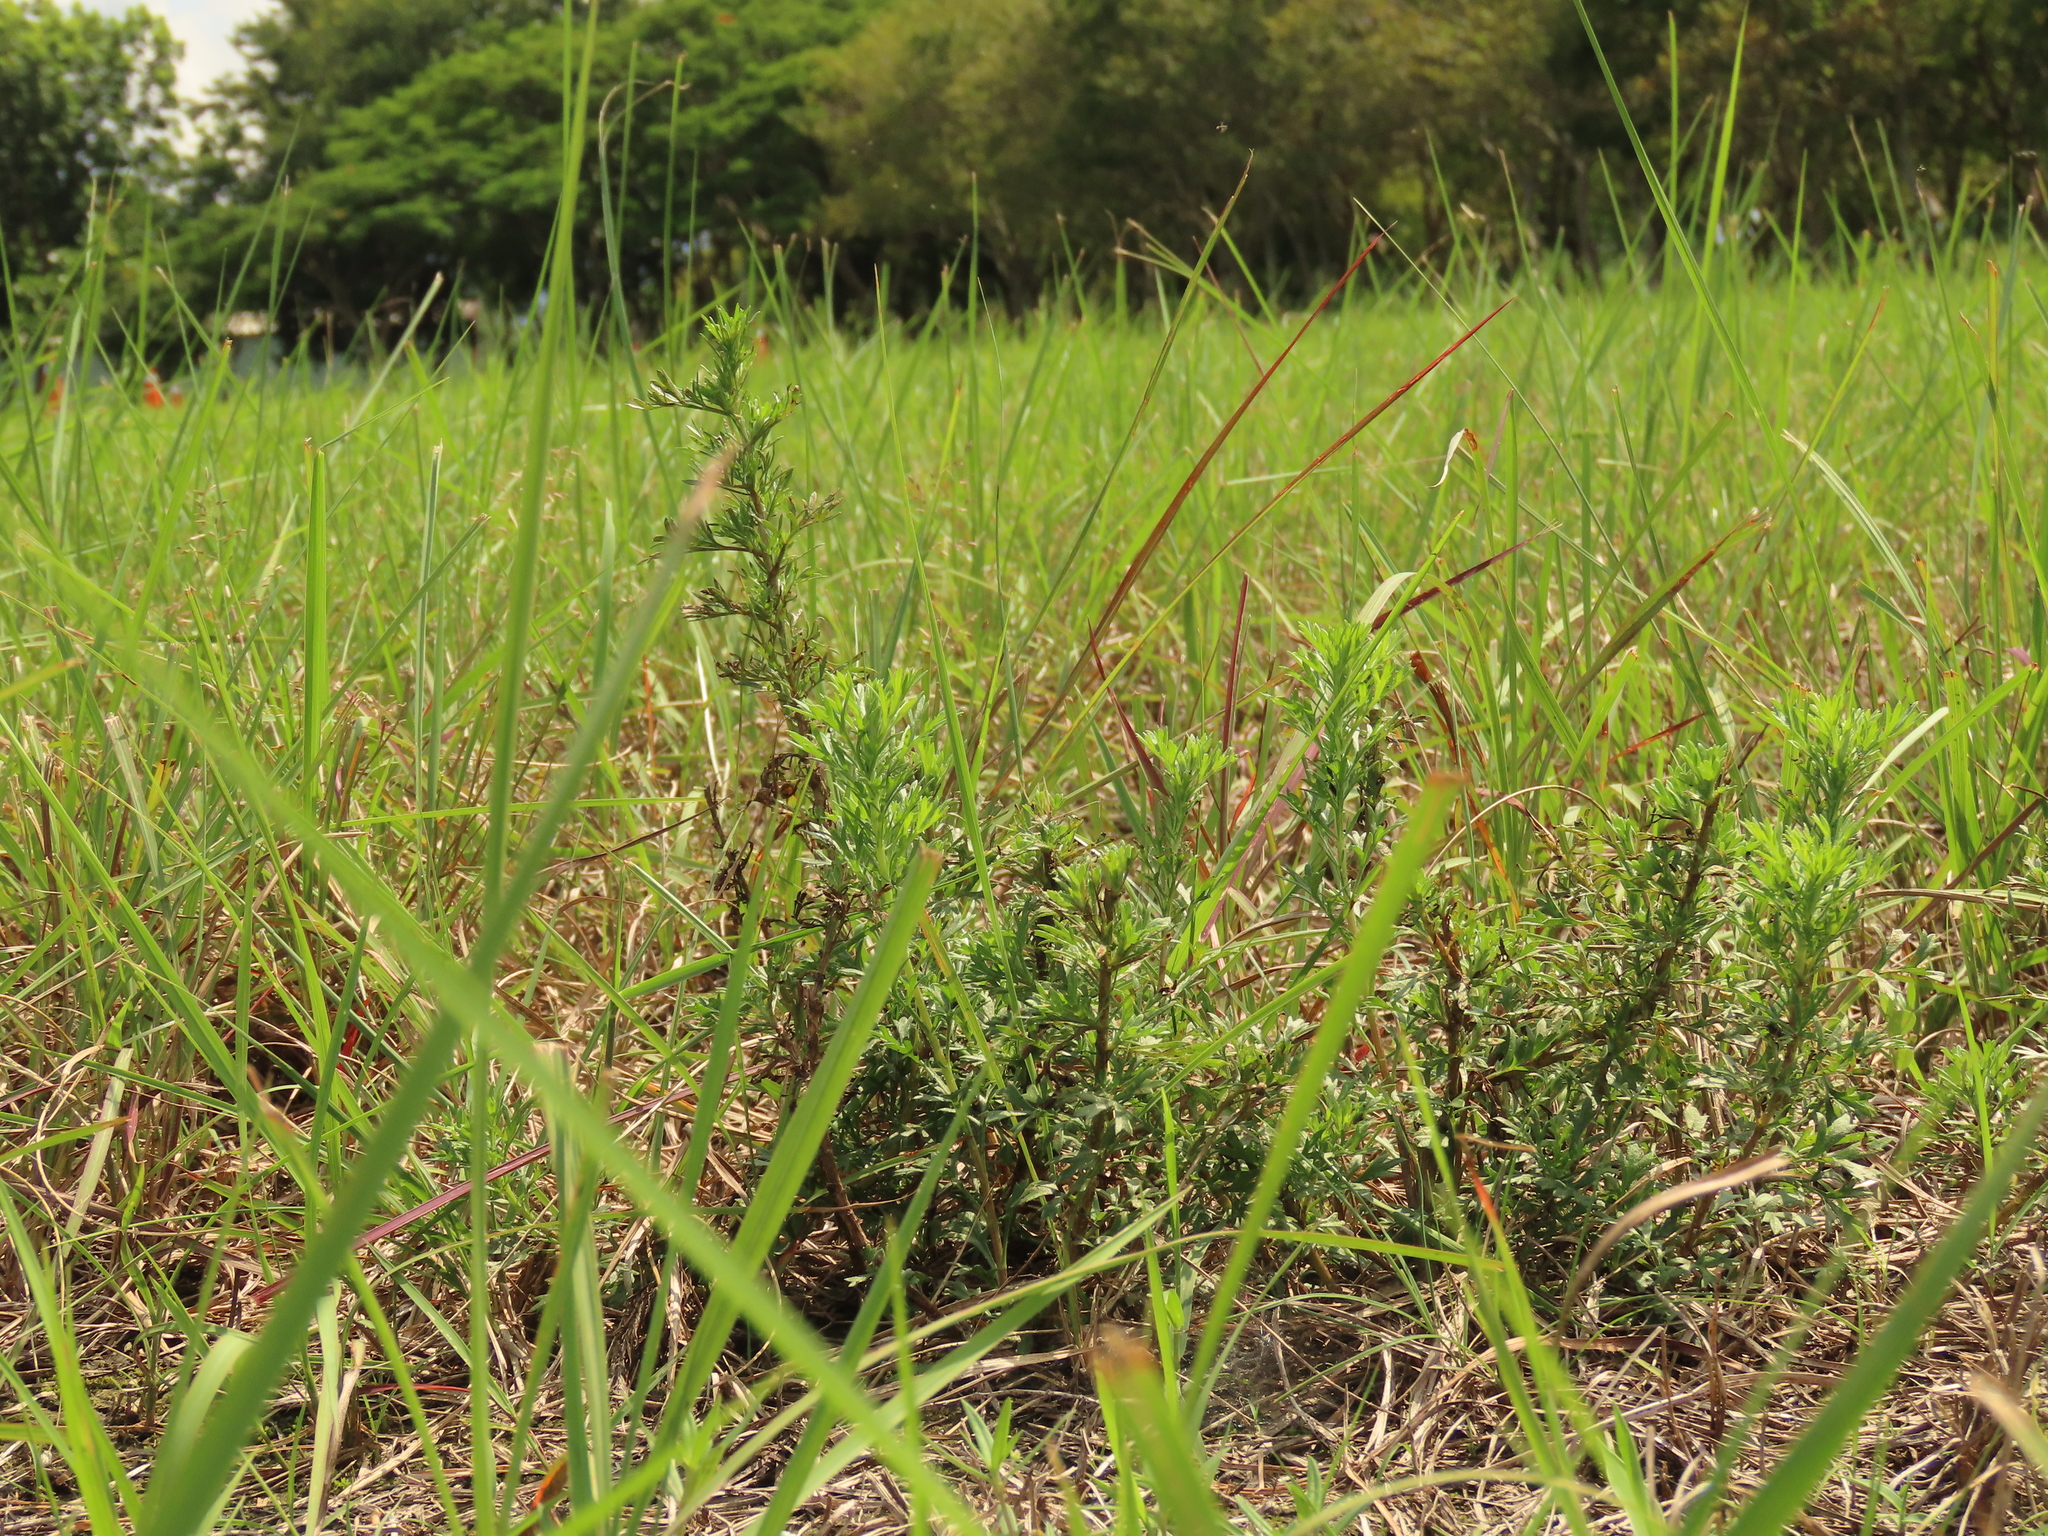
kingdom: Plantae
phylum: Tracheophyta
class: Magnoliopsida
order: Asterales
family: Asteraceae
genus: Artemisia
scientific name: Artemisia capillaris
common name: Yin-chen wormwood
